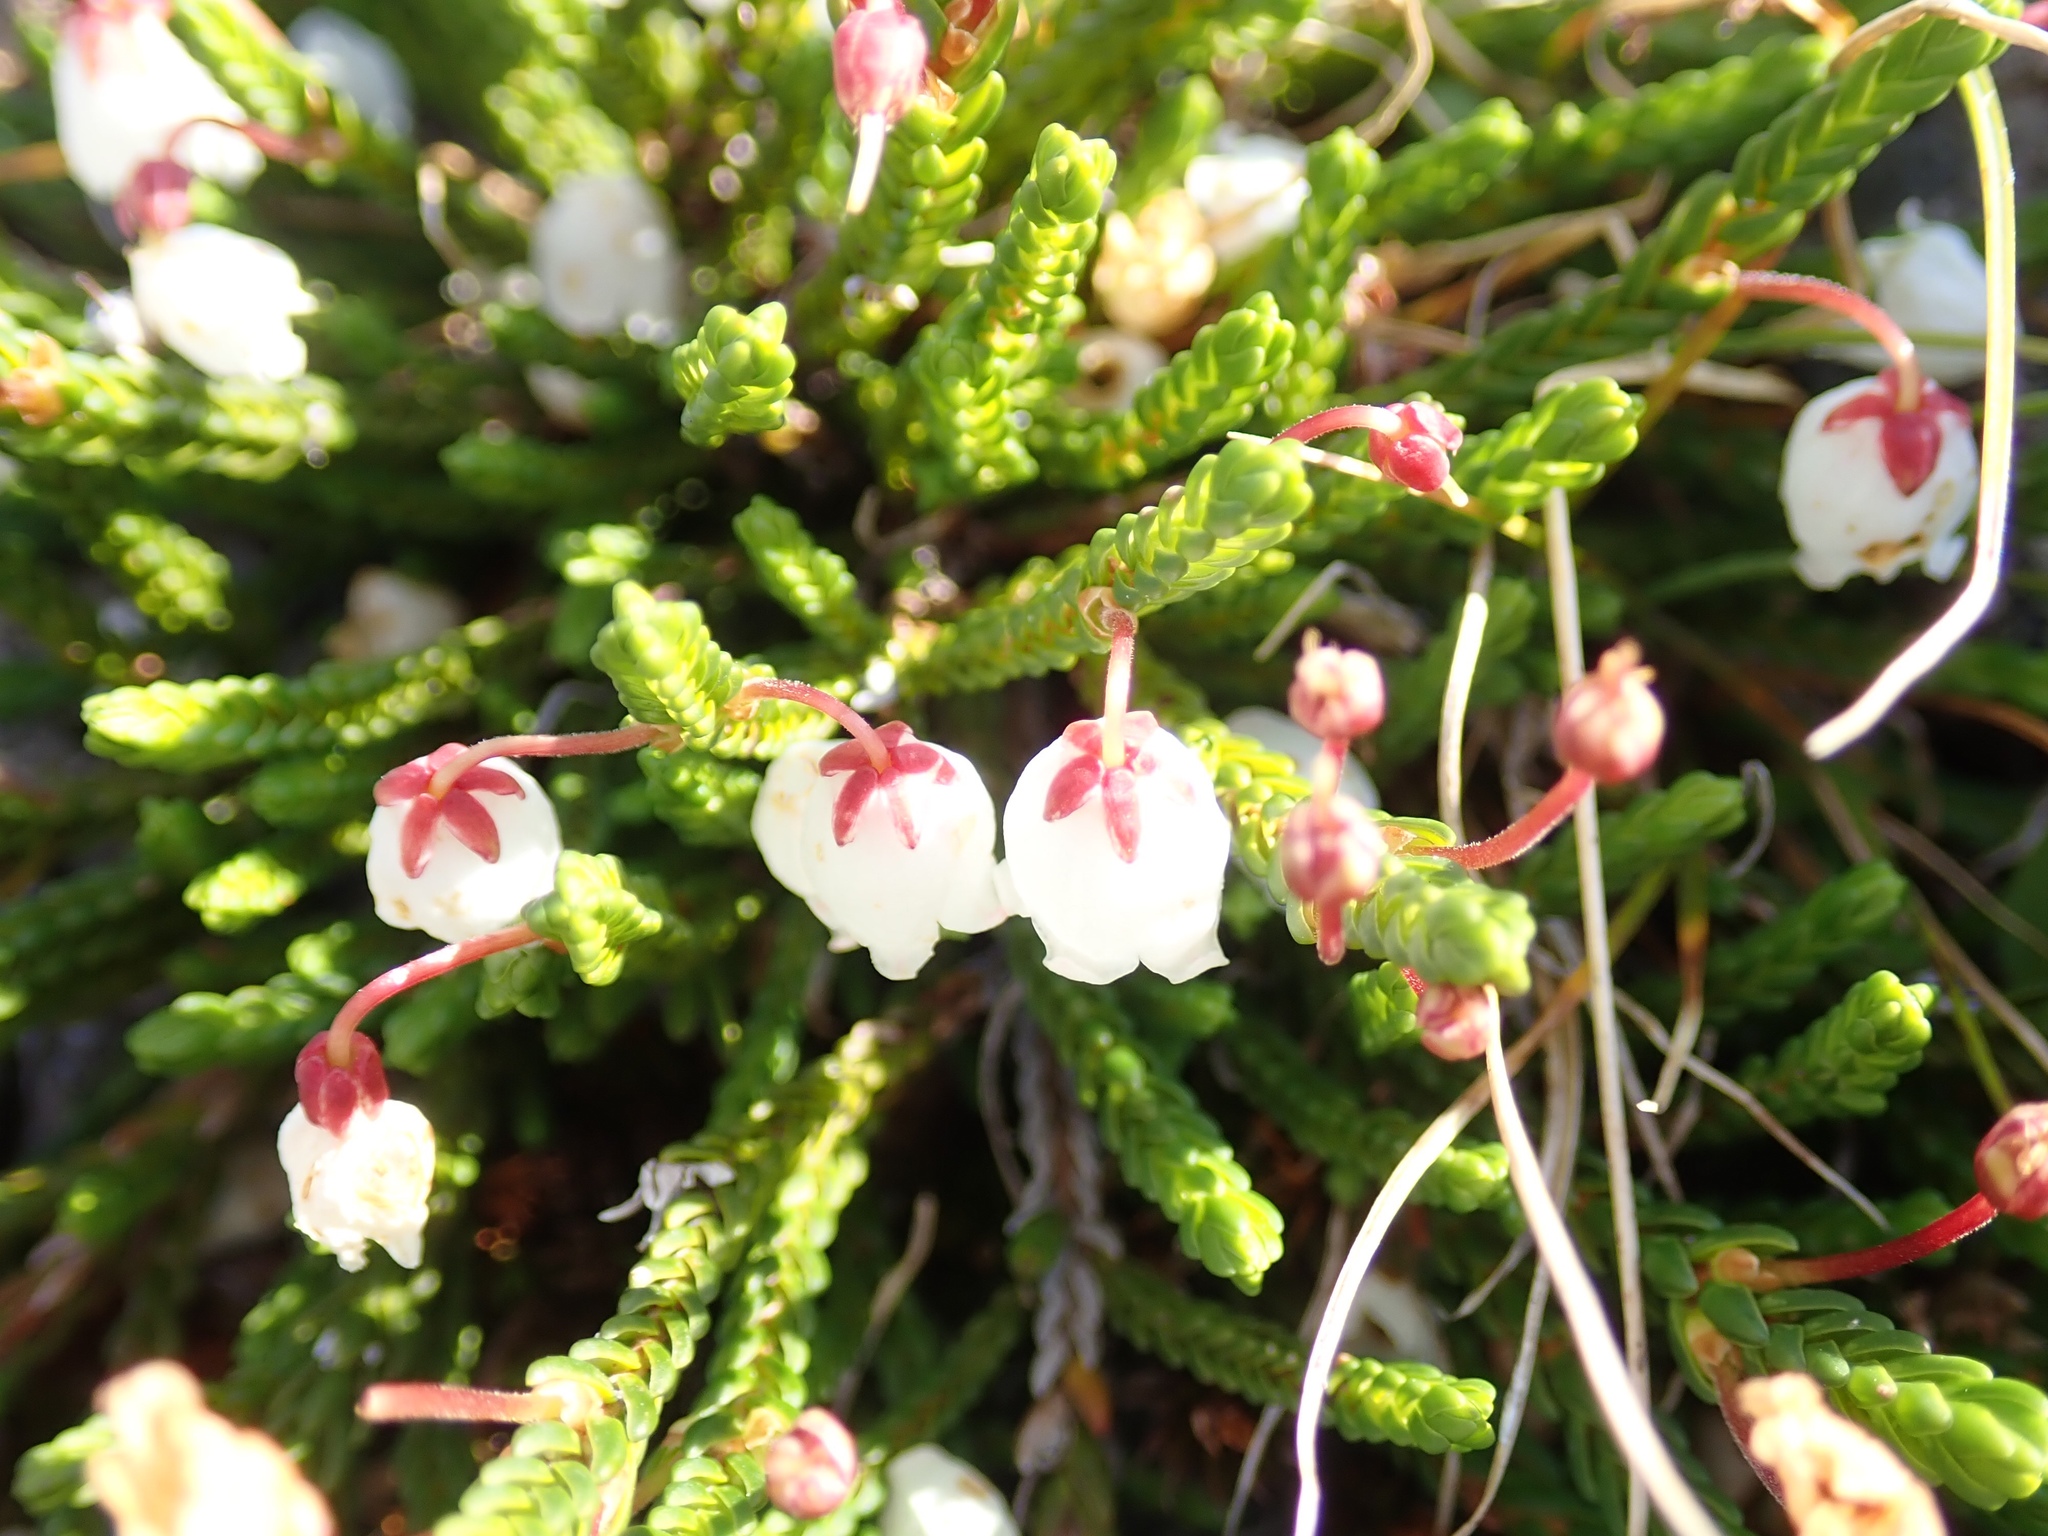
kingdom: Plantae
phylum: Tracheophyta
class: Magnoliopsida
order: Ericales
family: Ericaceae
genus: Cassiope
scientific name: Cassiope mertensiana
